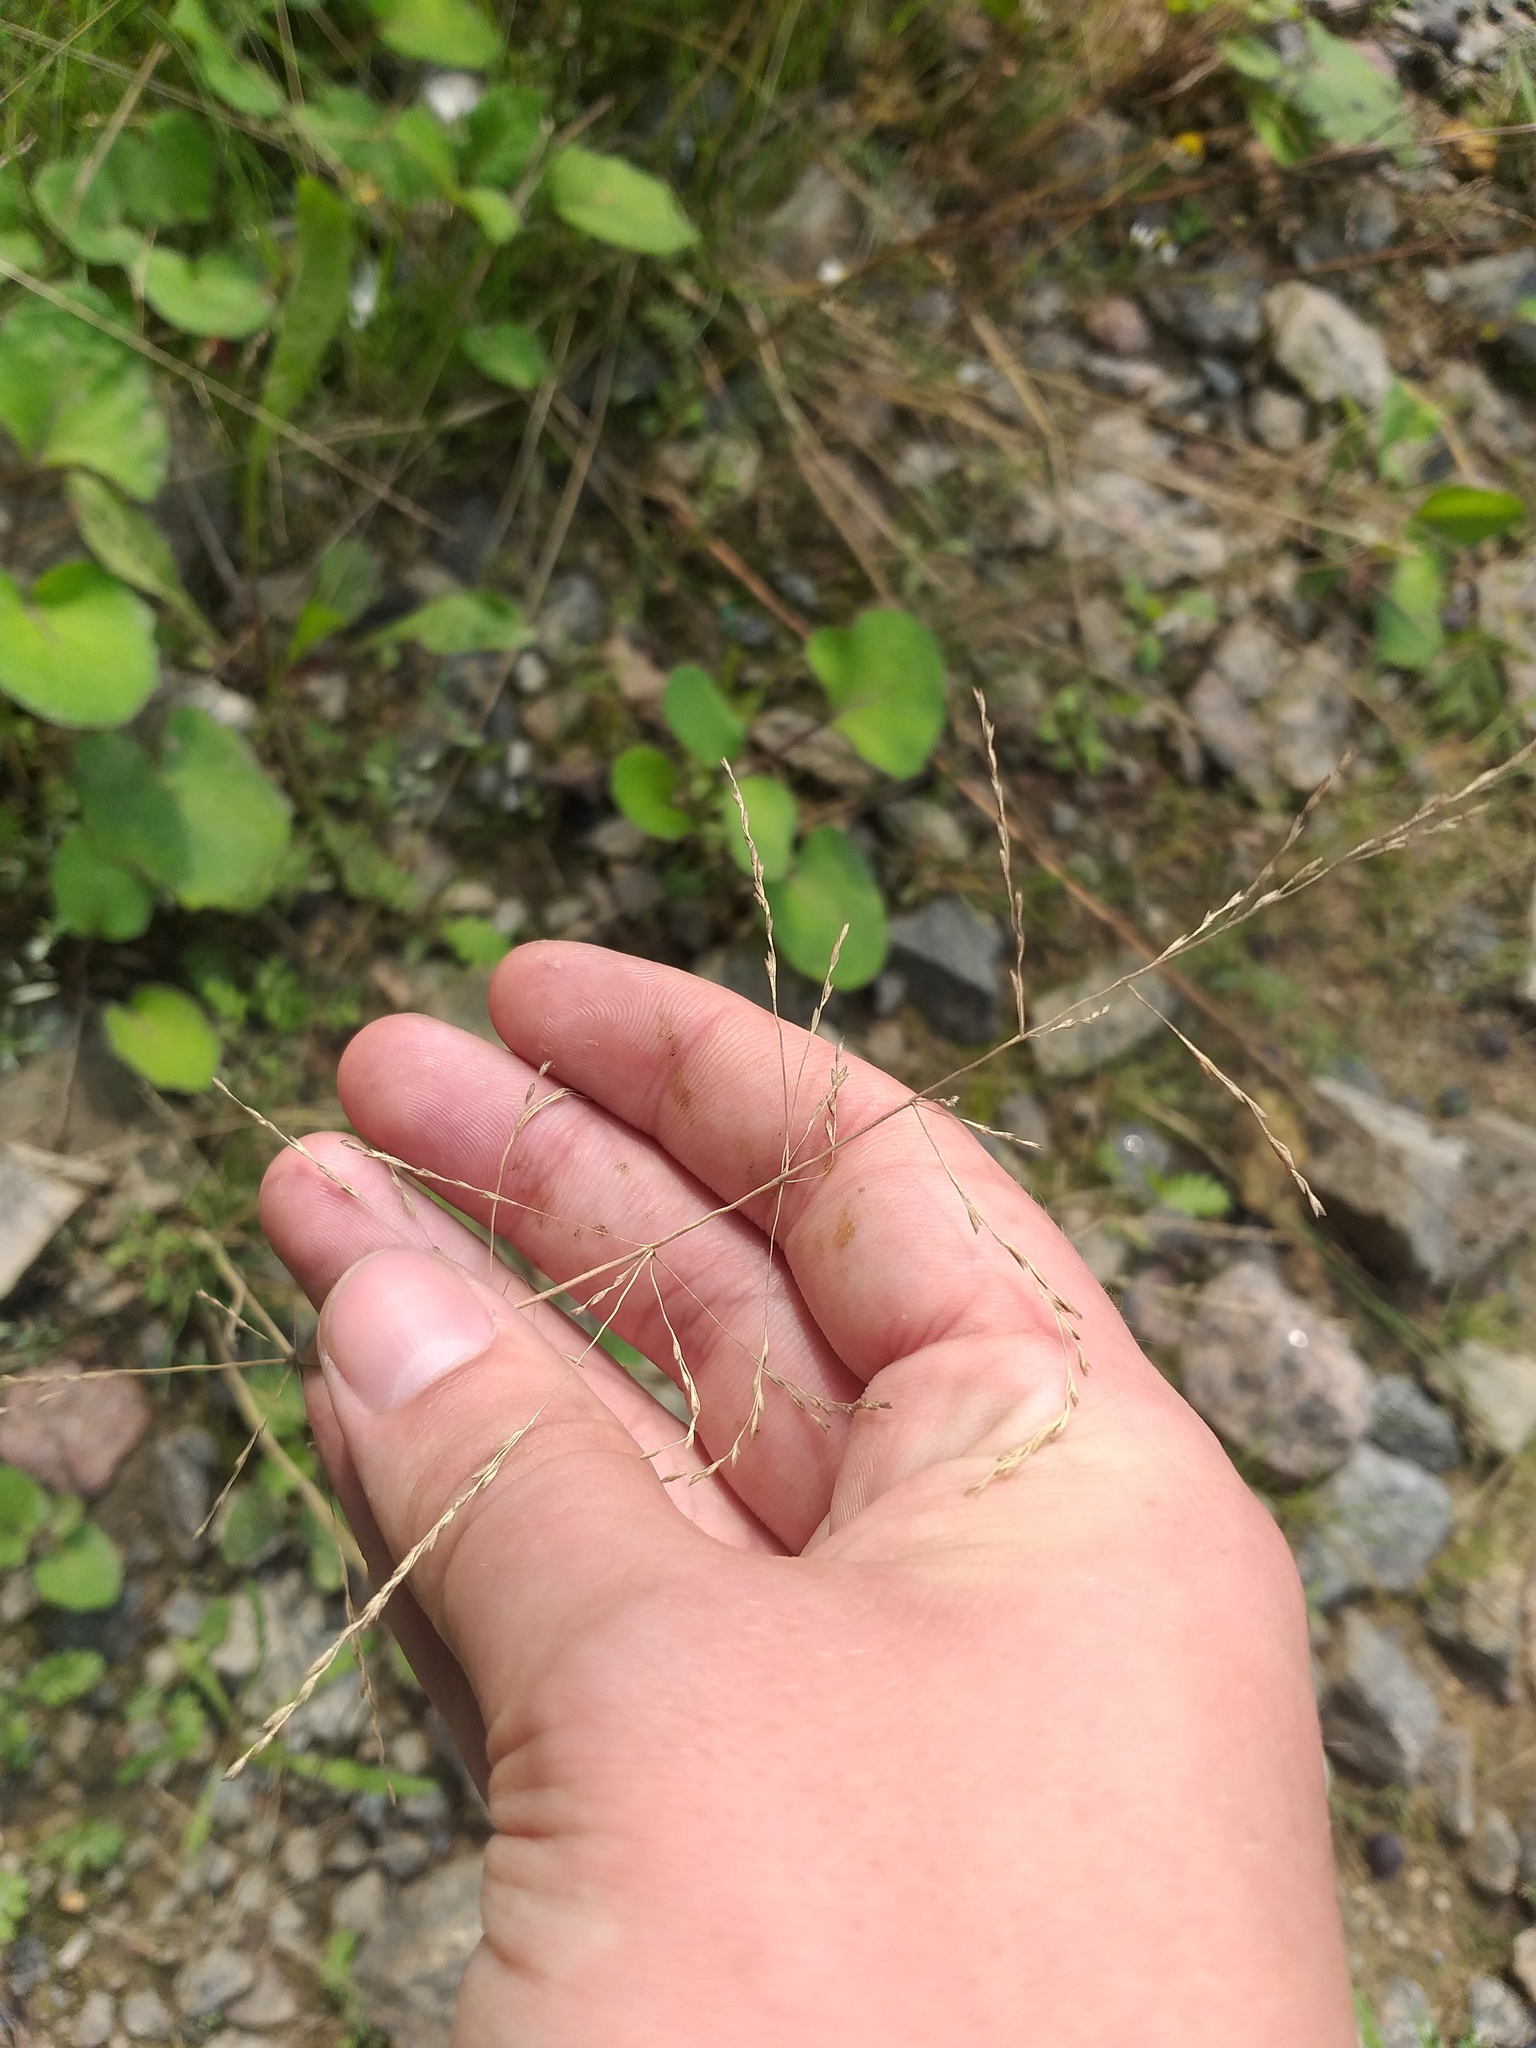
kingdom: Plantae
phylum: Tracheophyta
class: Liliopsida
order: Poales
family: Poaceae
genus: Puccinellia
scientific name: Puccinellia distans
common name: Weeping alkaligrass
